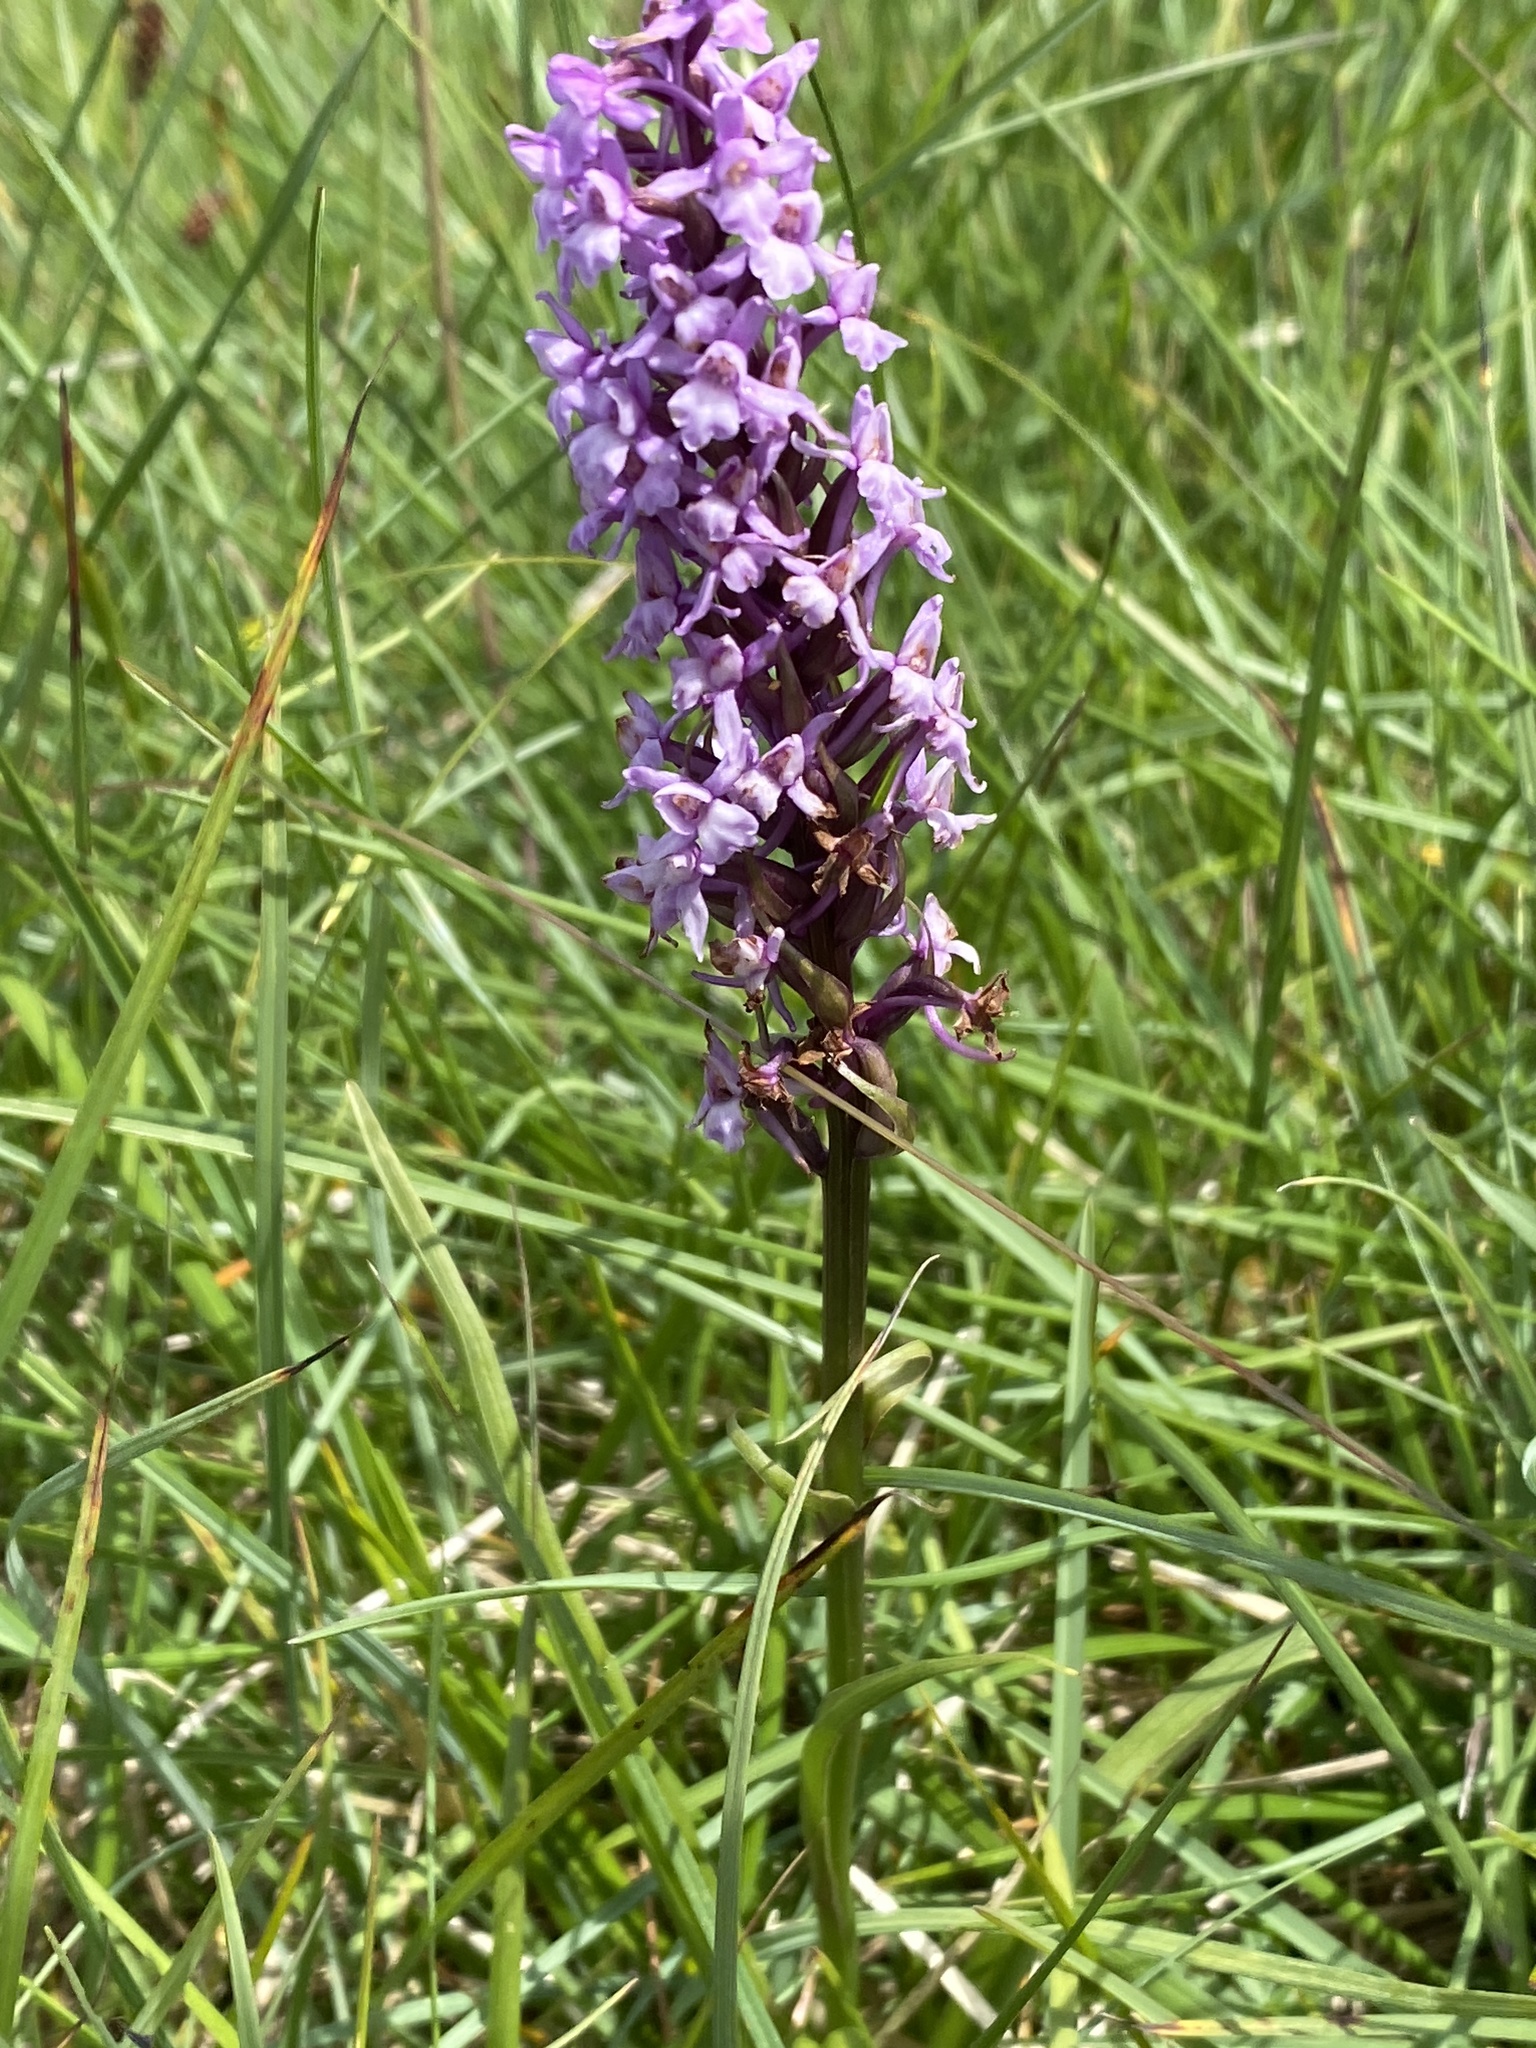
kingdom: Plantae
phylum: Tracheophyta
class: Liliopsida
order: Asparagales
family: Orchidaceae
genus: Gymnadenia
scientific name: Gymnadenia conopsea
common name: Fragrant orchid
